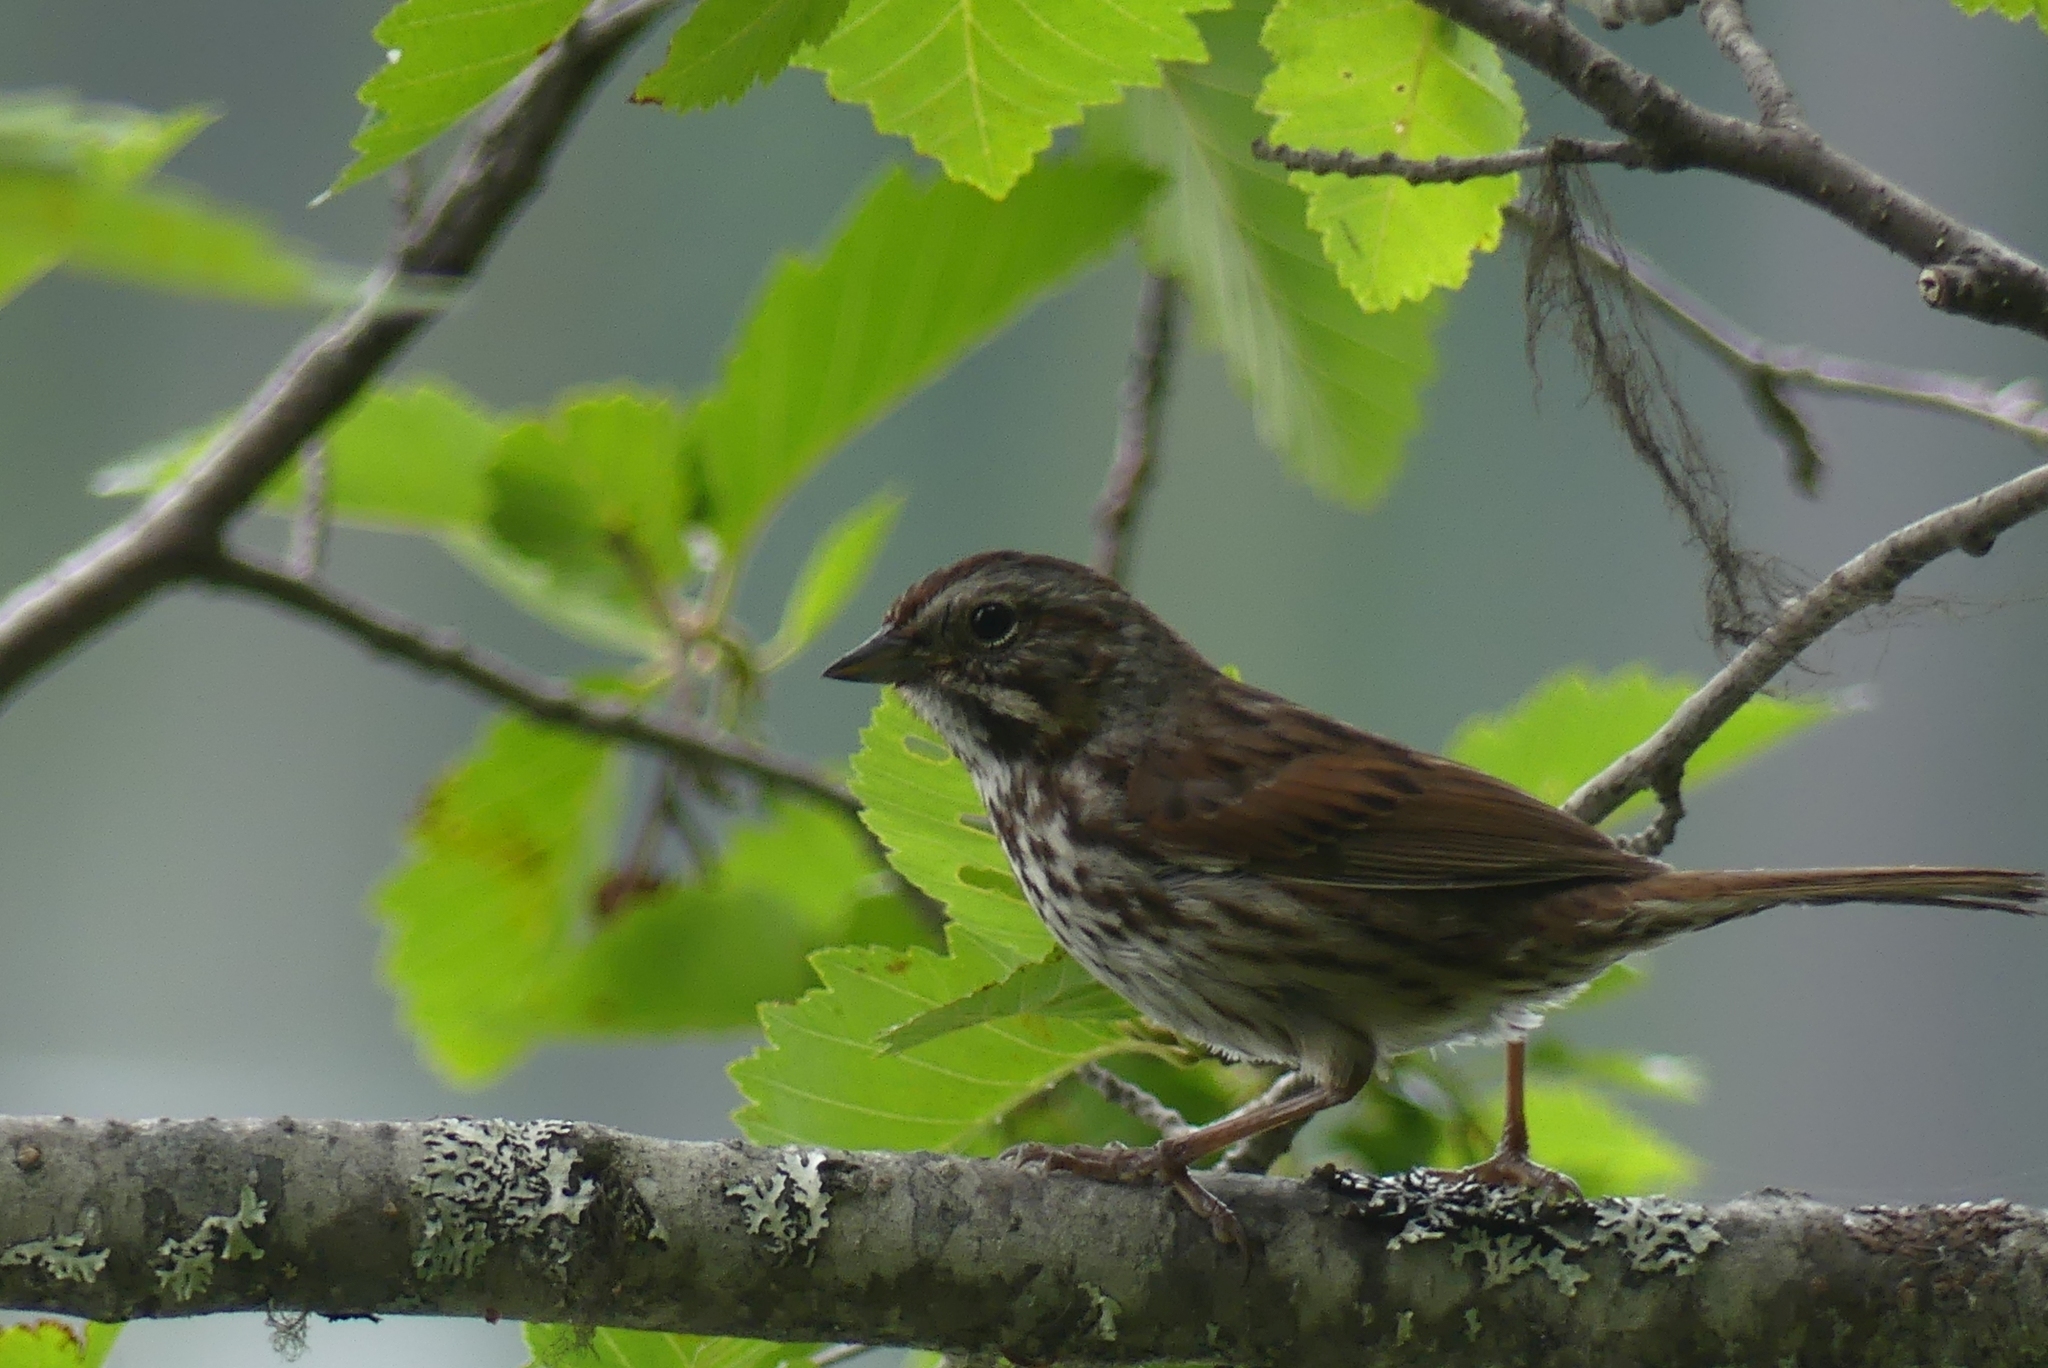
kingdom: Animalia
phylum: Chordata
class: Aves
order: Passeriformes
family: Passerellidae
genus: Melospiza
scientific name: Melospiza melodia
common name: Song sparrow
